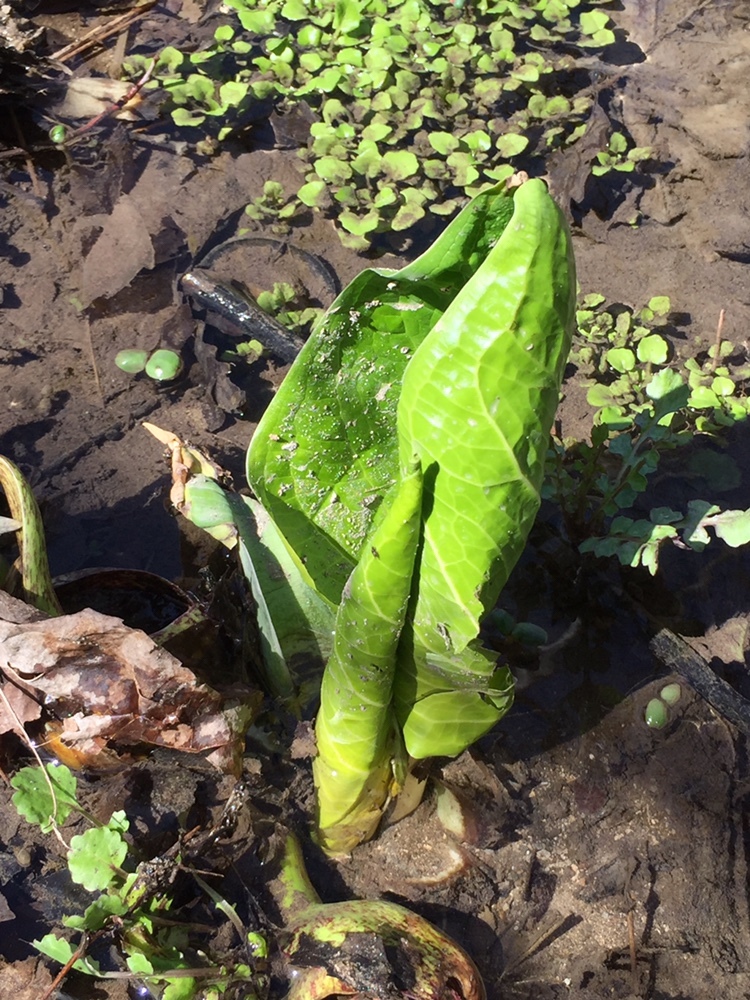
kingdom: Plantae
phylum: Tracheophyta
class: Liliopsida
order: Alismatales
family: Araceae
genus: Symplocarpus
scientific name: Symplocarpus foetidus
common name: Eastern skunk cabbage
